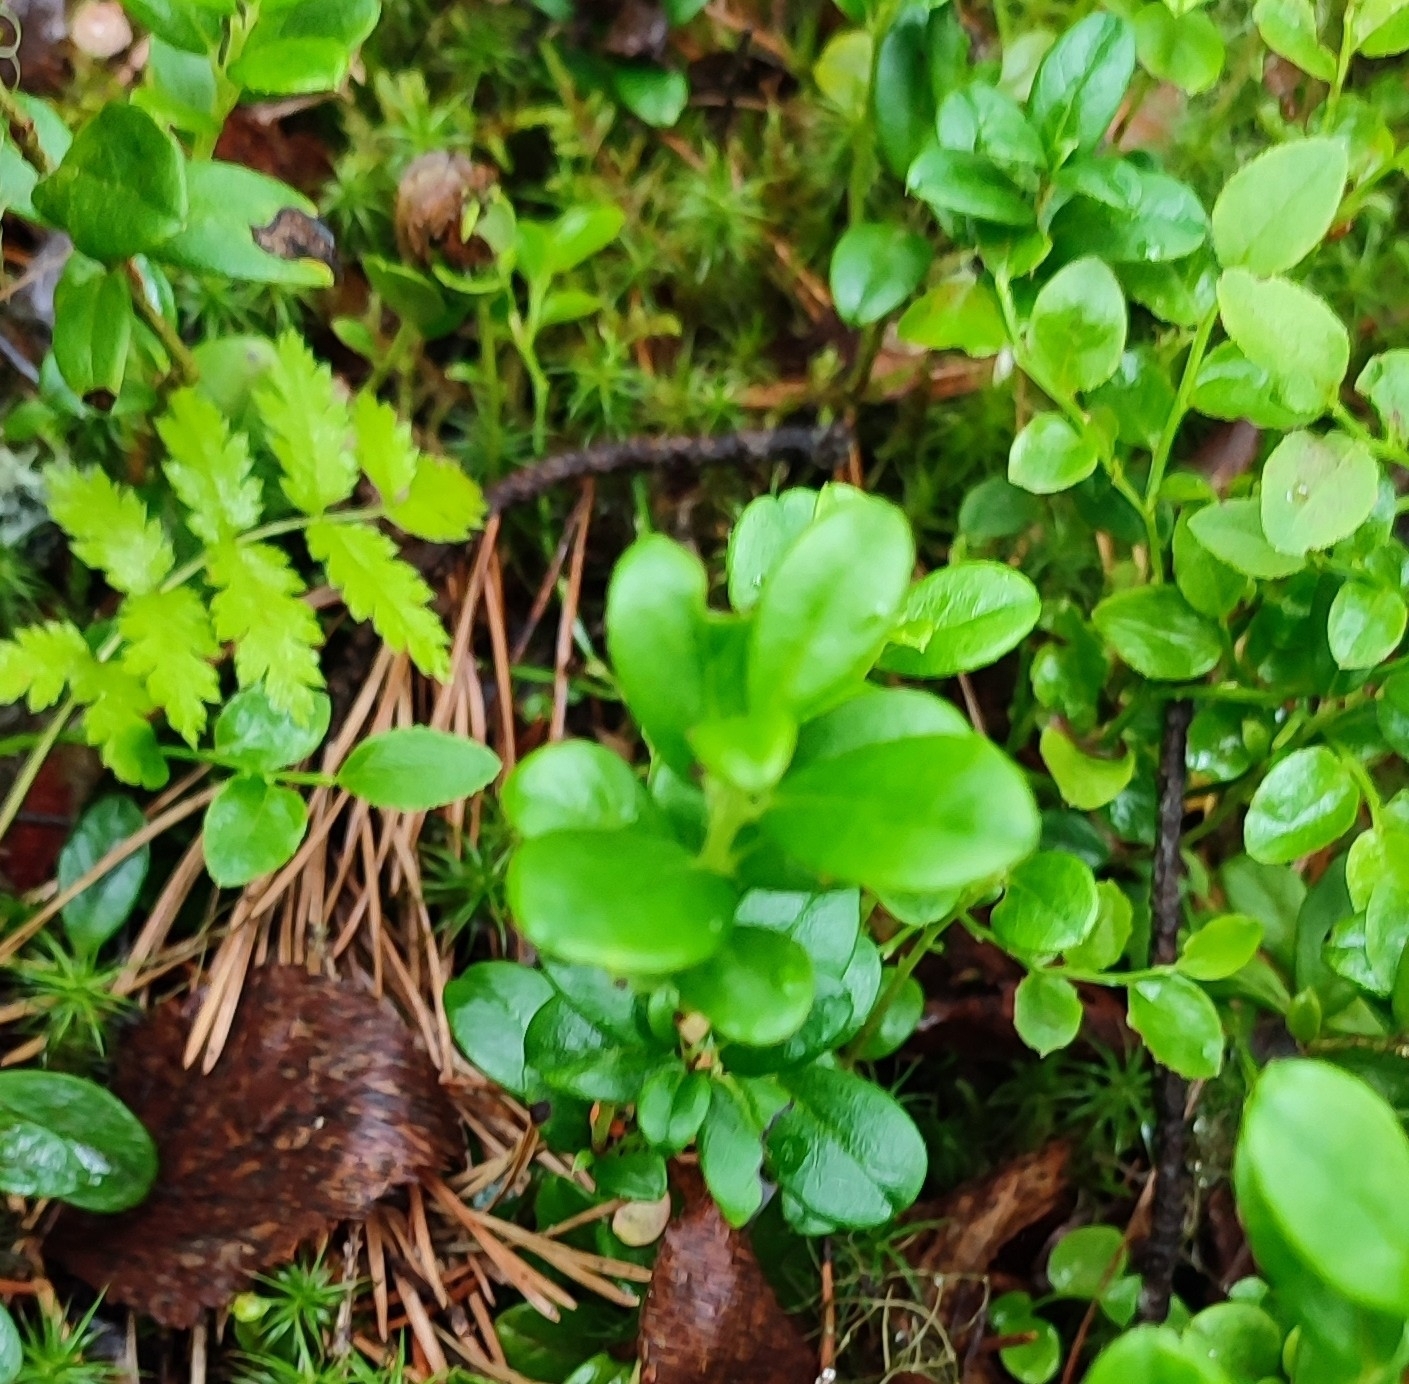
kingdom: Plantae
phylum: Tracheophyta
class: Magnoliopsida
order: Ericales
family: Ericaceae
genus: Vaccinium
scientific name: Vaccinium vitis-idaea
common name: Cowberry
